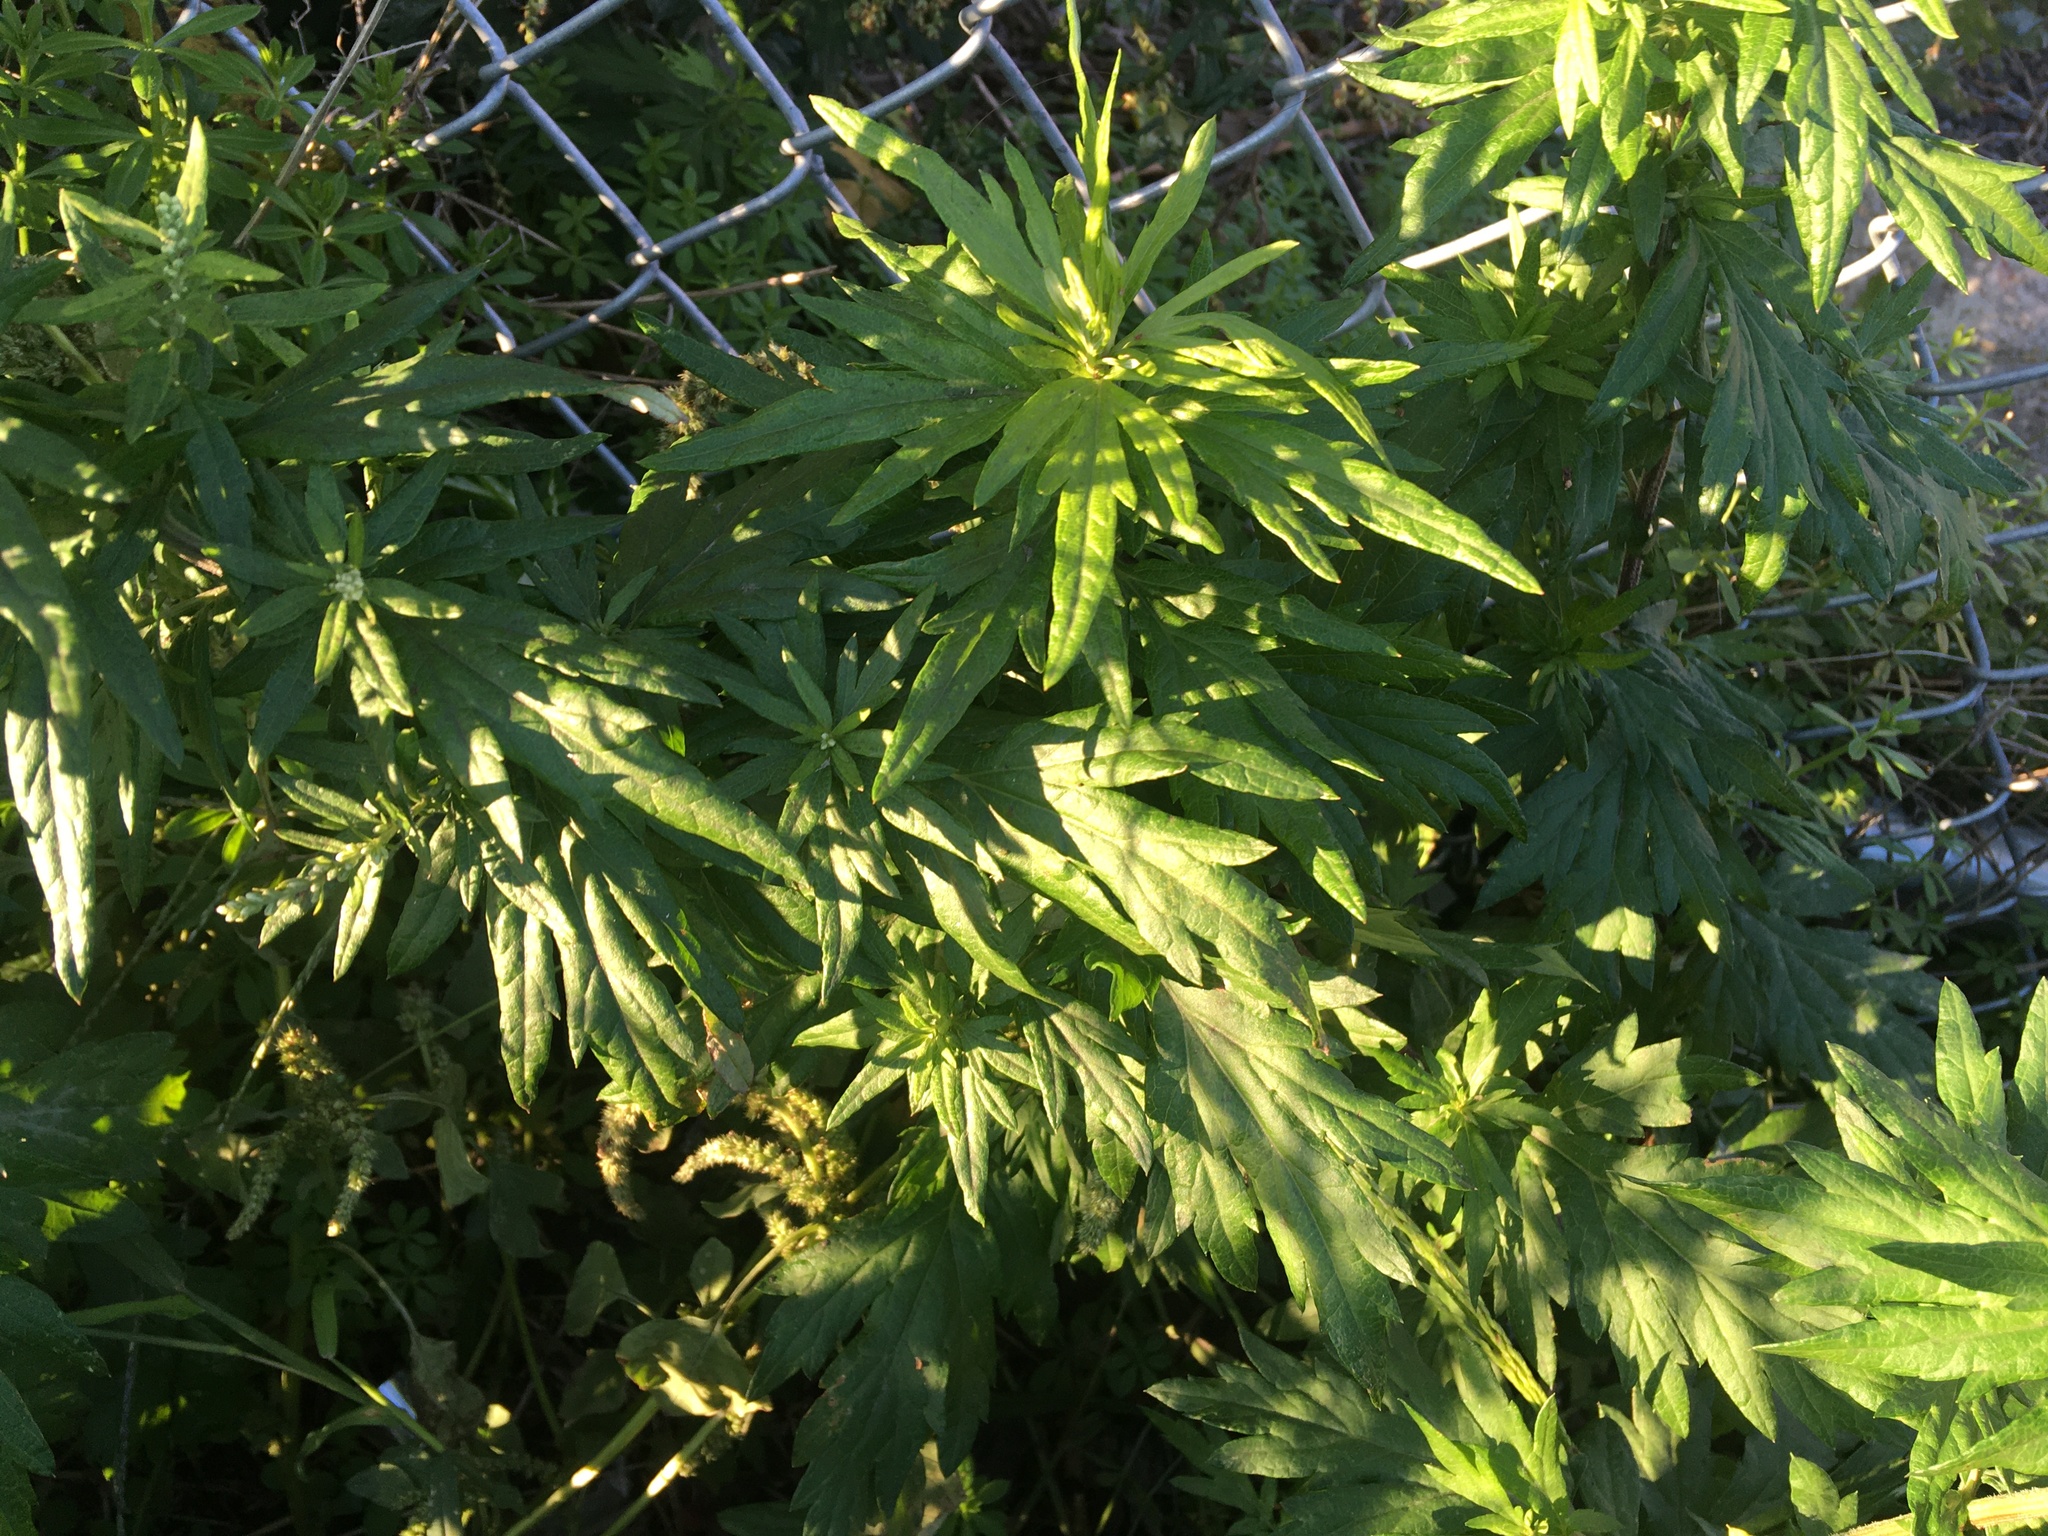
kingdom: Plantae
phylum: Tracheophyta
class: Magnoliopsida
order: Asterales
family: Asteraceae
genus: Artemisia
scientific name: Artemisia vulgaris
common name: Mugwort
